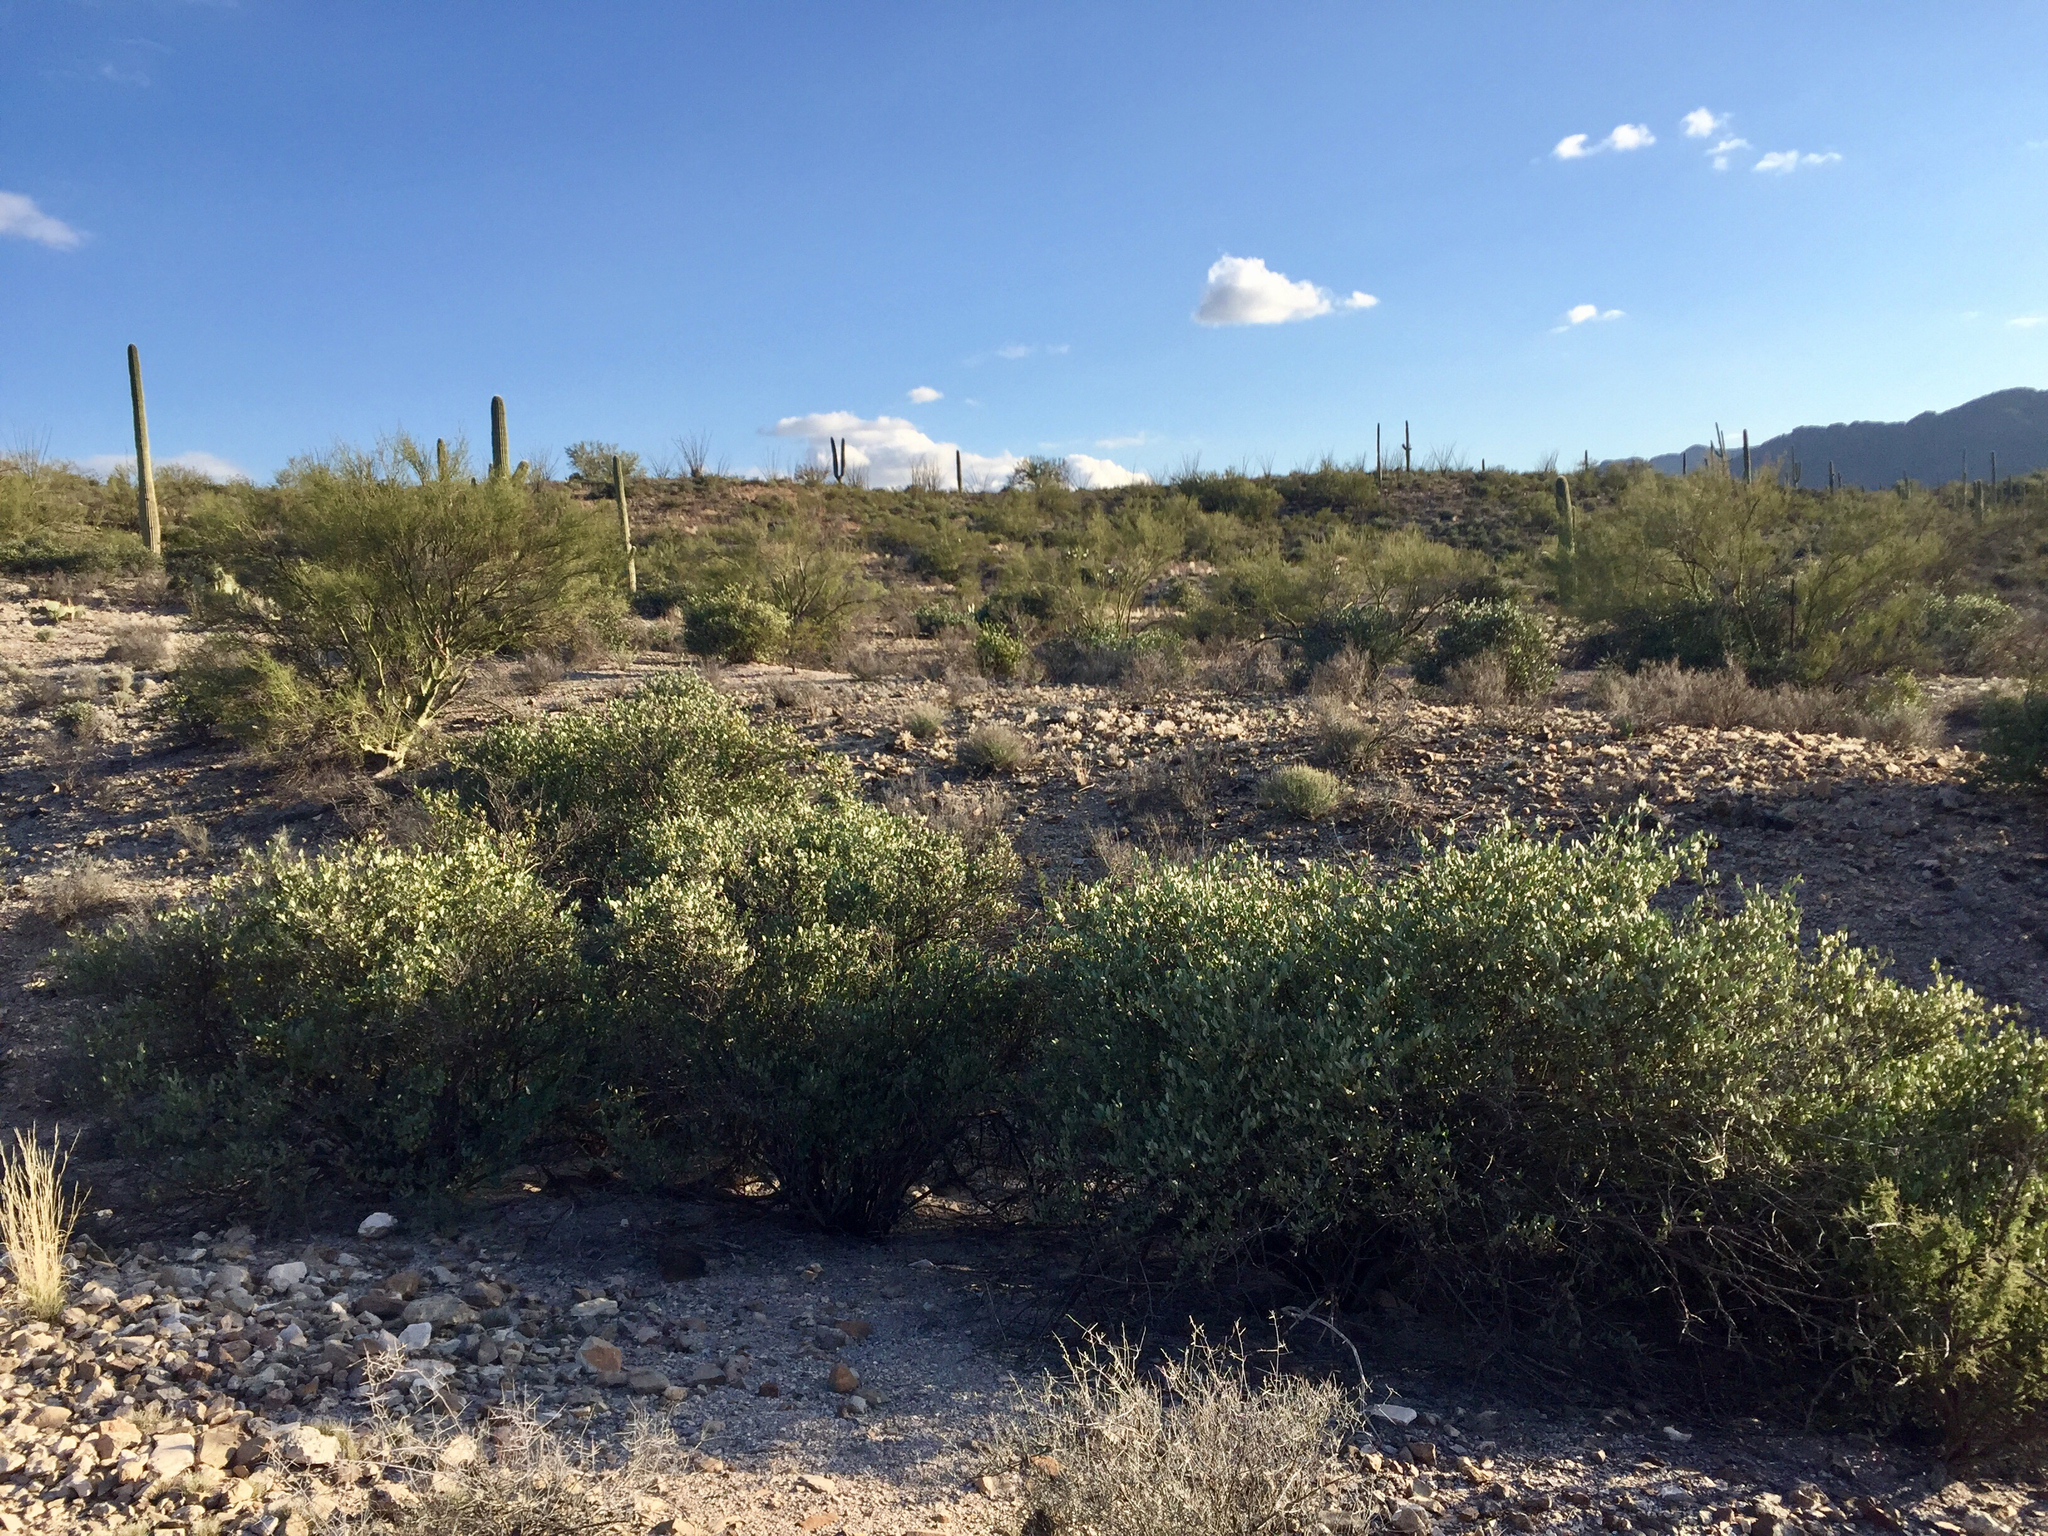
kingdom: Plantae
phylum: Tracheophyta
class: Magnoliopsida
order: Caryophyllales
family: Simmondsiaceae
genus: Simmondsia
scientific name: Simmondsia chinensis
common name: Jojoba
